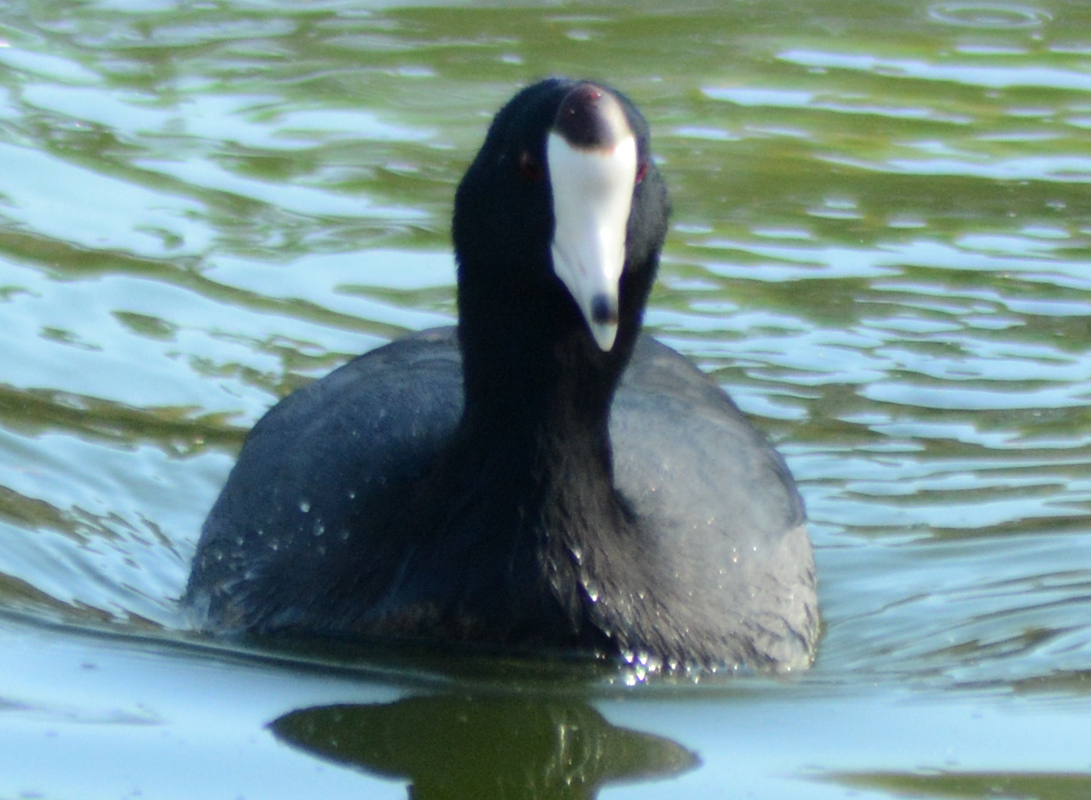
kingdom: Animalia
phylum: Chordata
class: Aves
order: Gruiformes
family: Rallidae
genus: Fulica
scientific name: Fulica americana
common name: American coot
